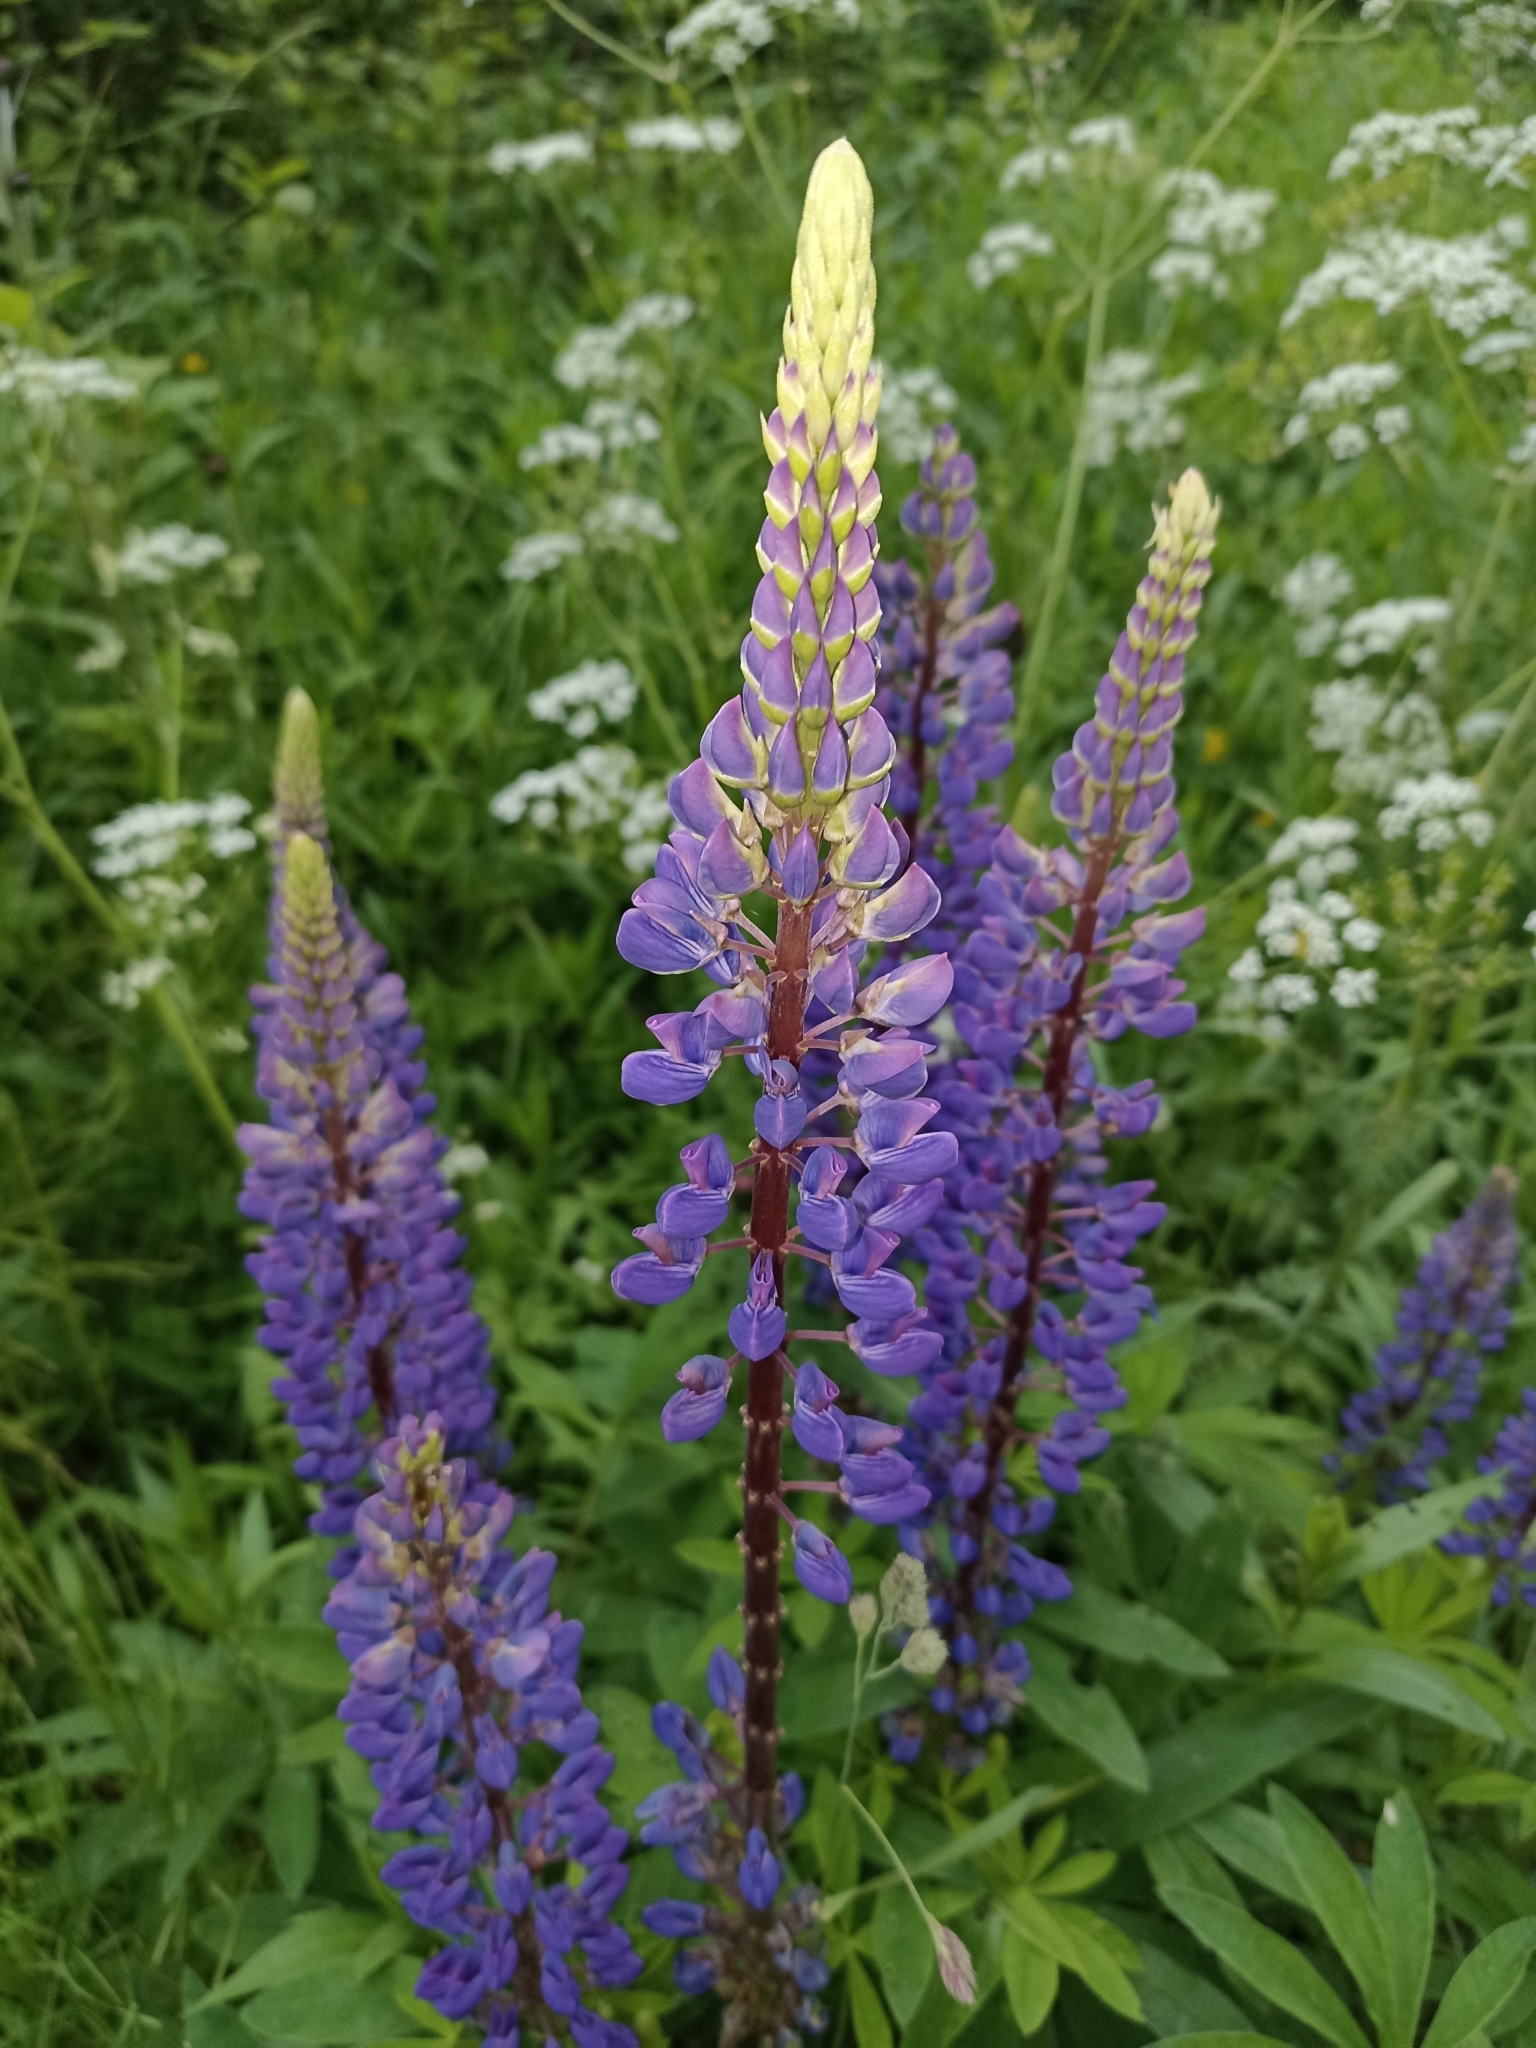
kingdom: Plantae
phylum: Tracheophyta
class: Magnoliopsida
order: Fabales
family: Fabaceae
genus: Lupinus
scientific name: Lupinus polyphyllus
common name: Garden lupin
